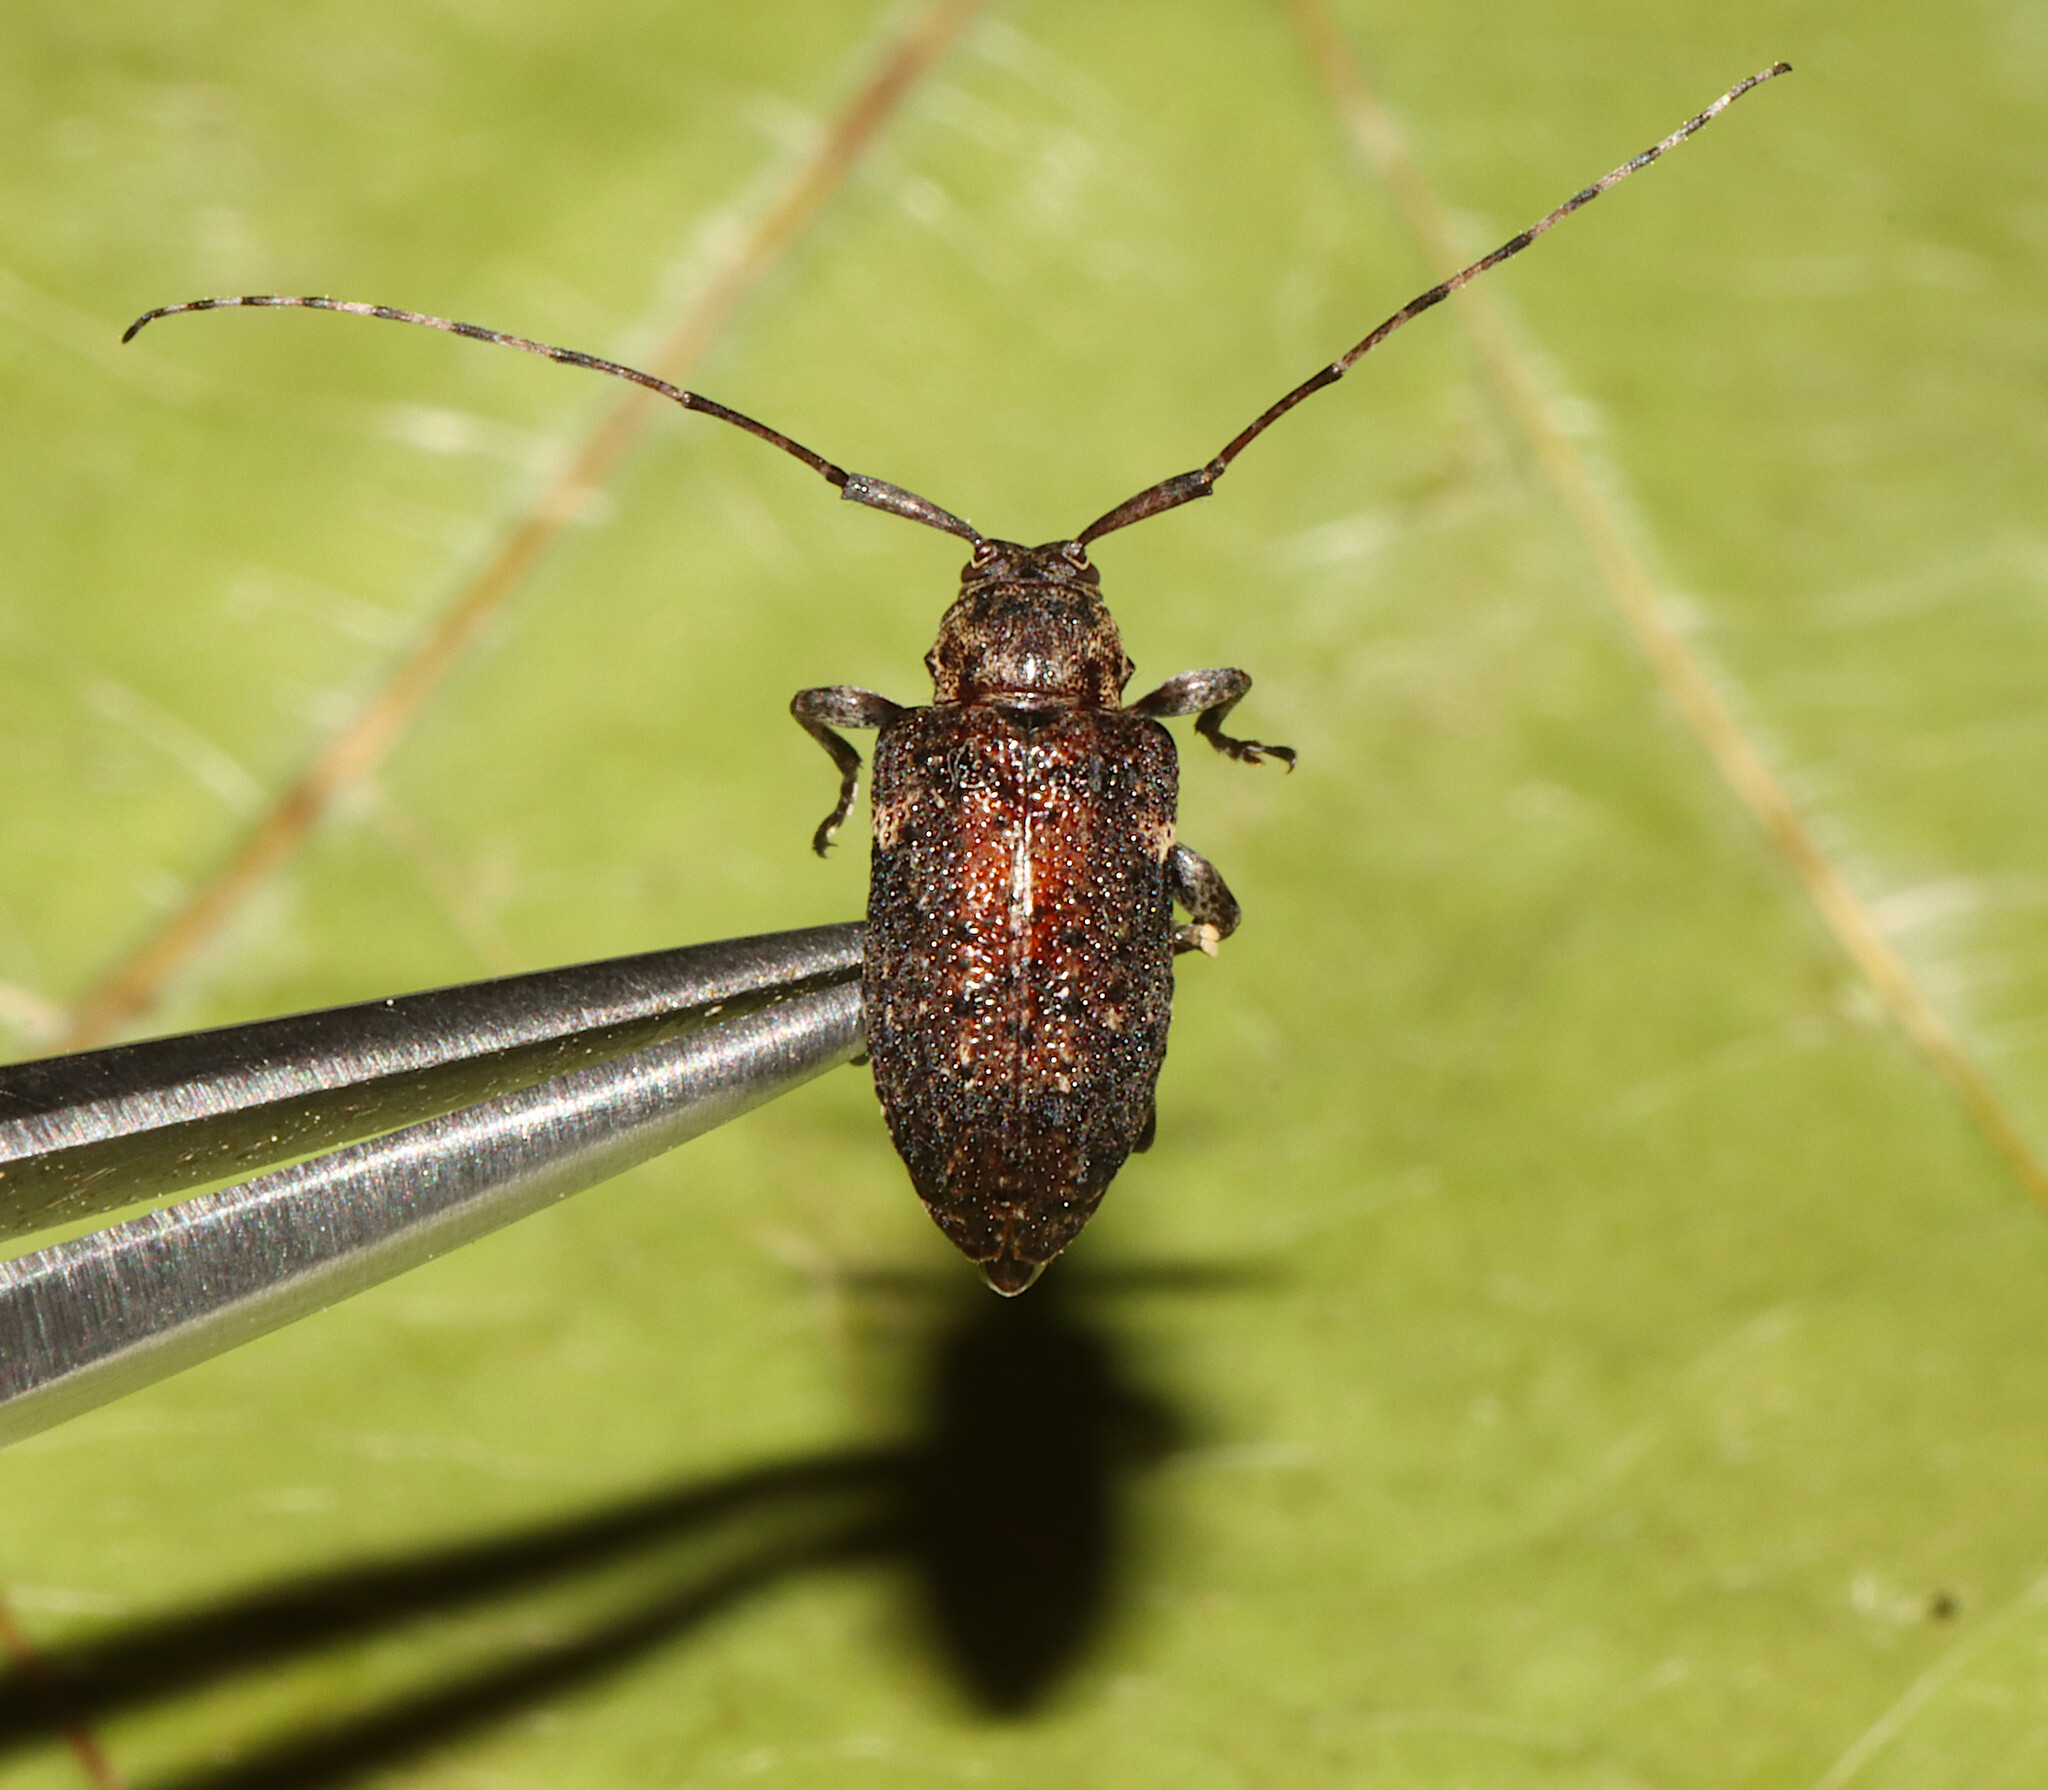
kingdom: Animalia
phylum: Arthropoda
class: Insecta
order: Coleoptera
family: Cerambycidae
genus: Astylopsis
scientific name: Astylopsis sexguttata
